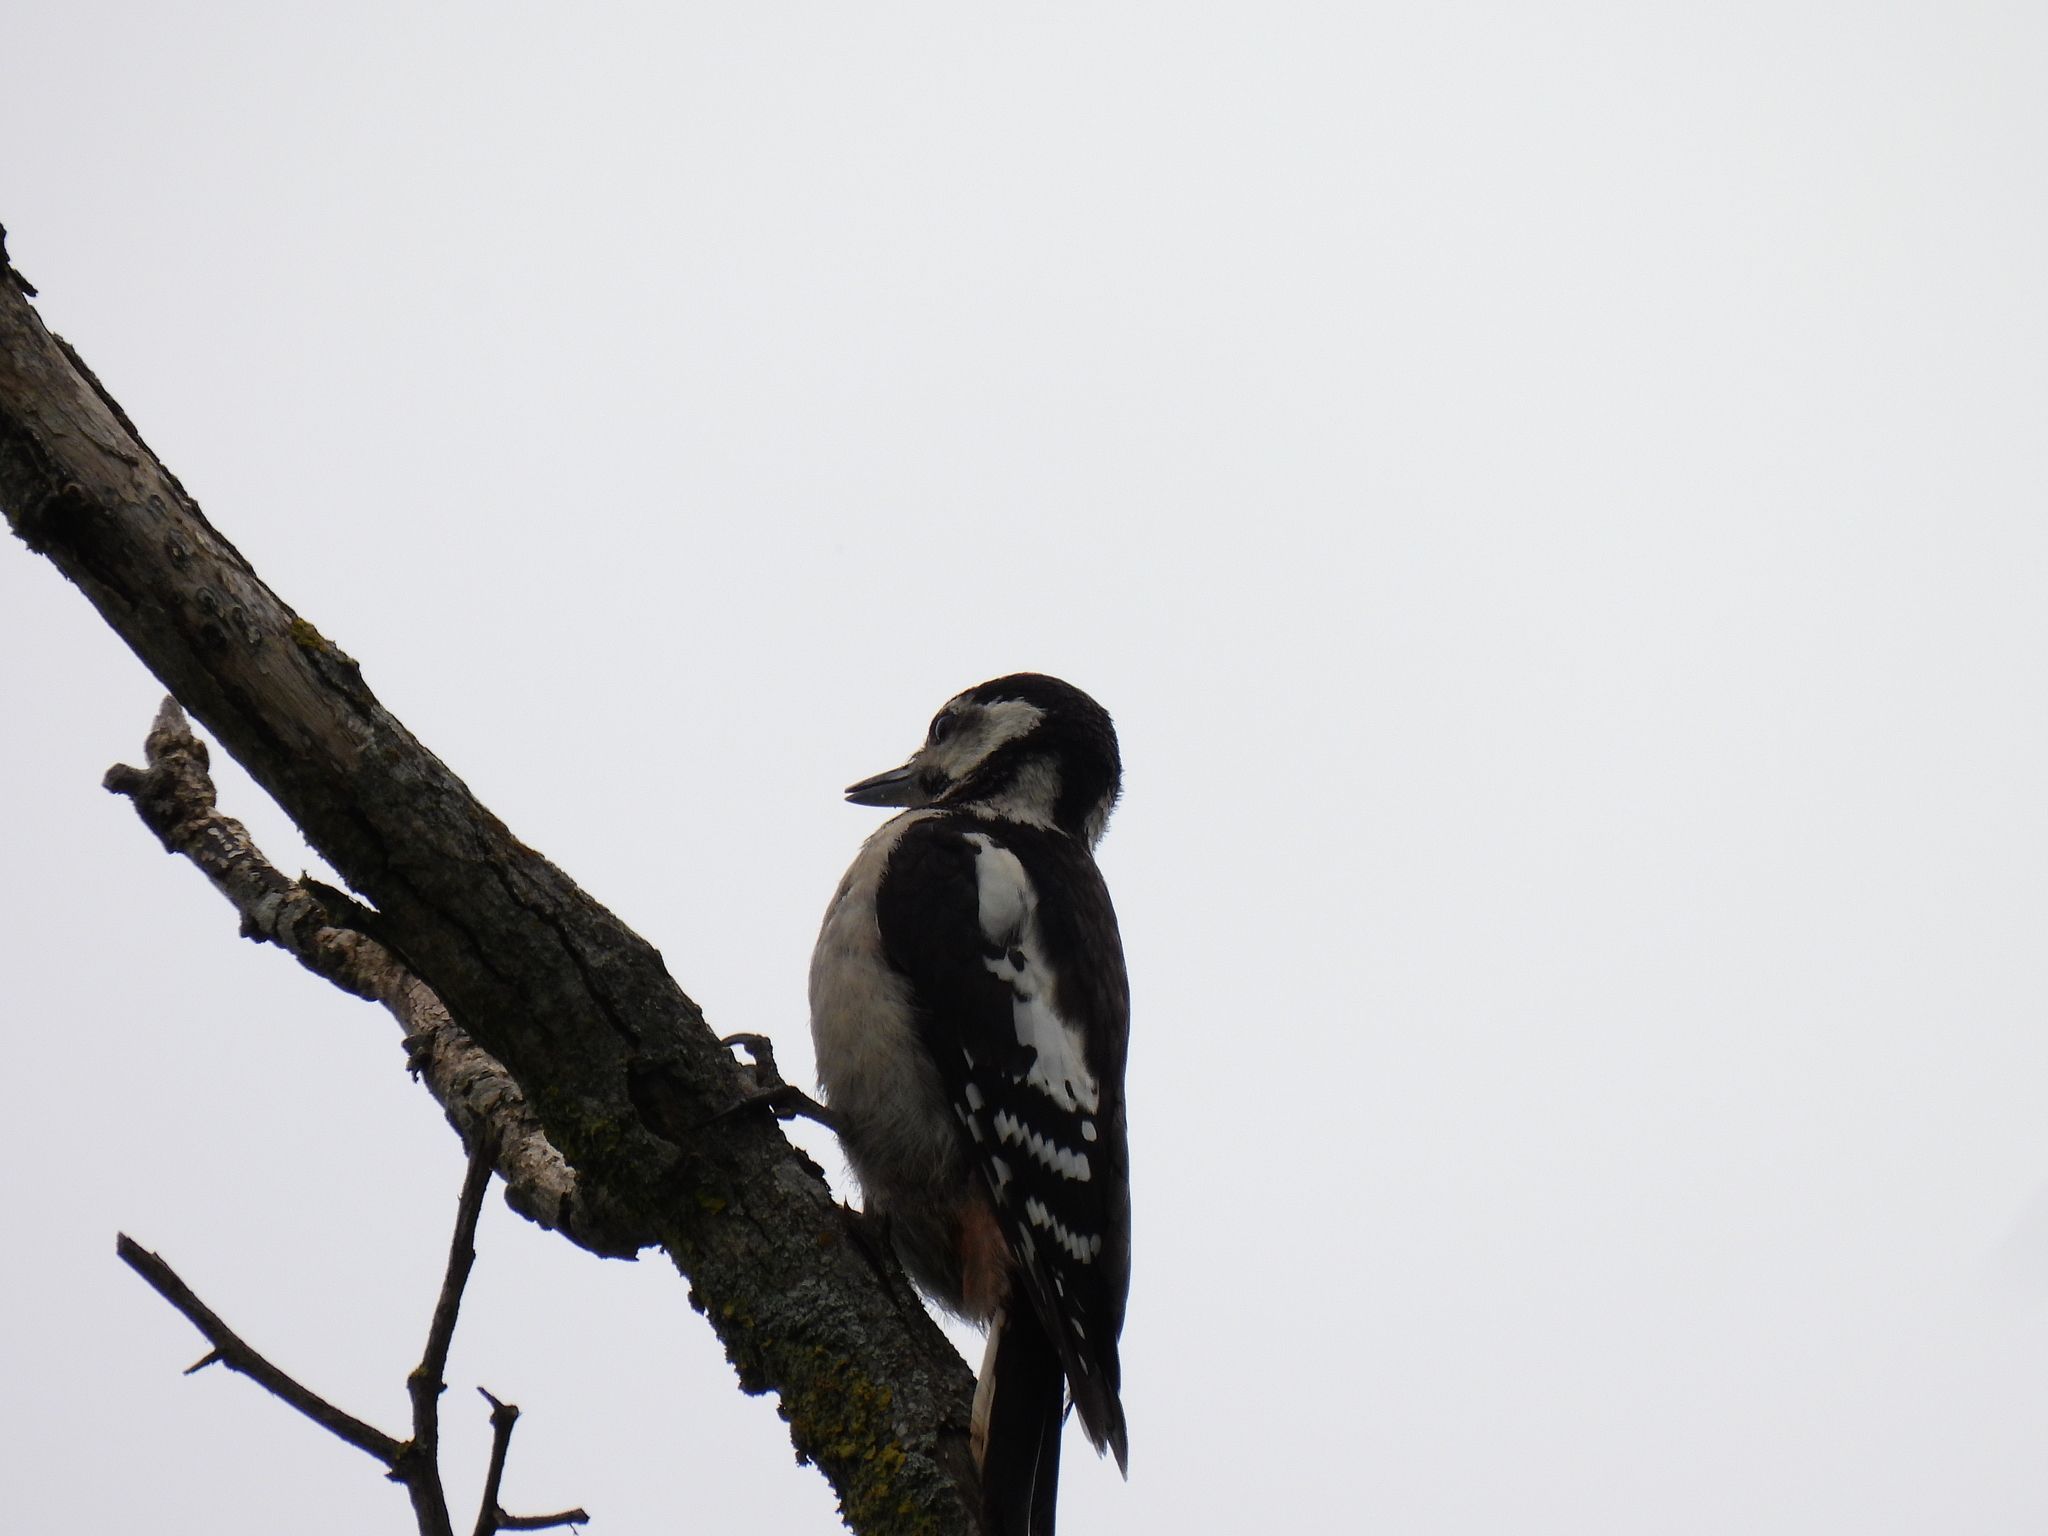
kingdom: Animalia
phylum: Chordata
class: Aves
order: Piciformes
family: Picidae
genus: Dendrocopos
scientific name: Dendrocopos major
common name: Great spotted woodpecker
